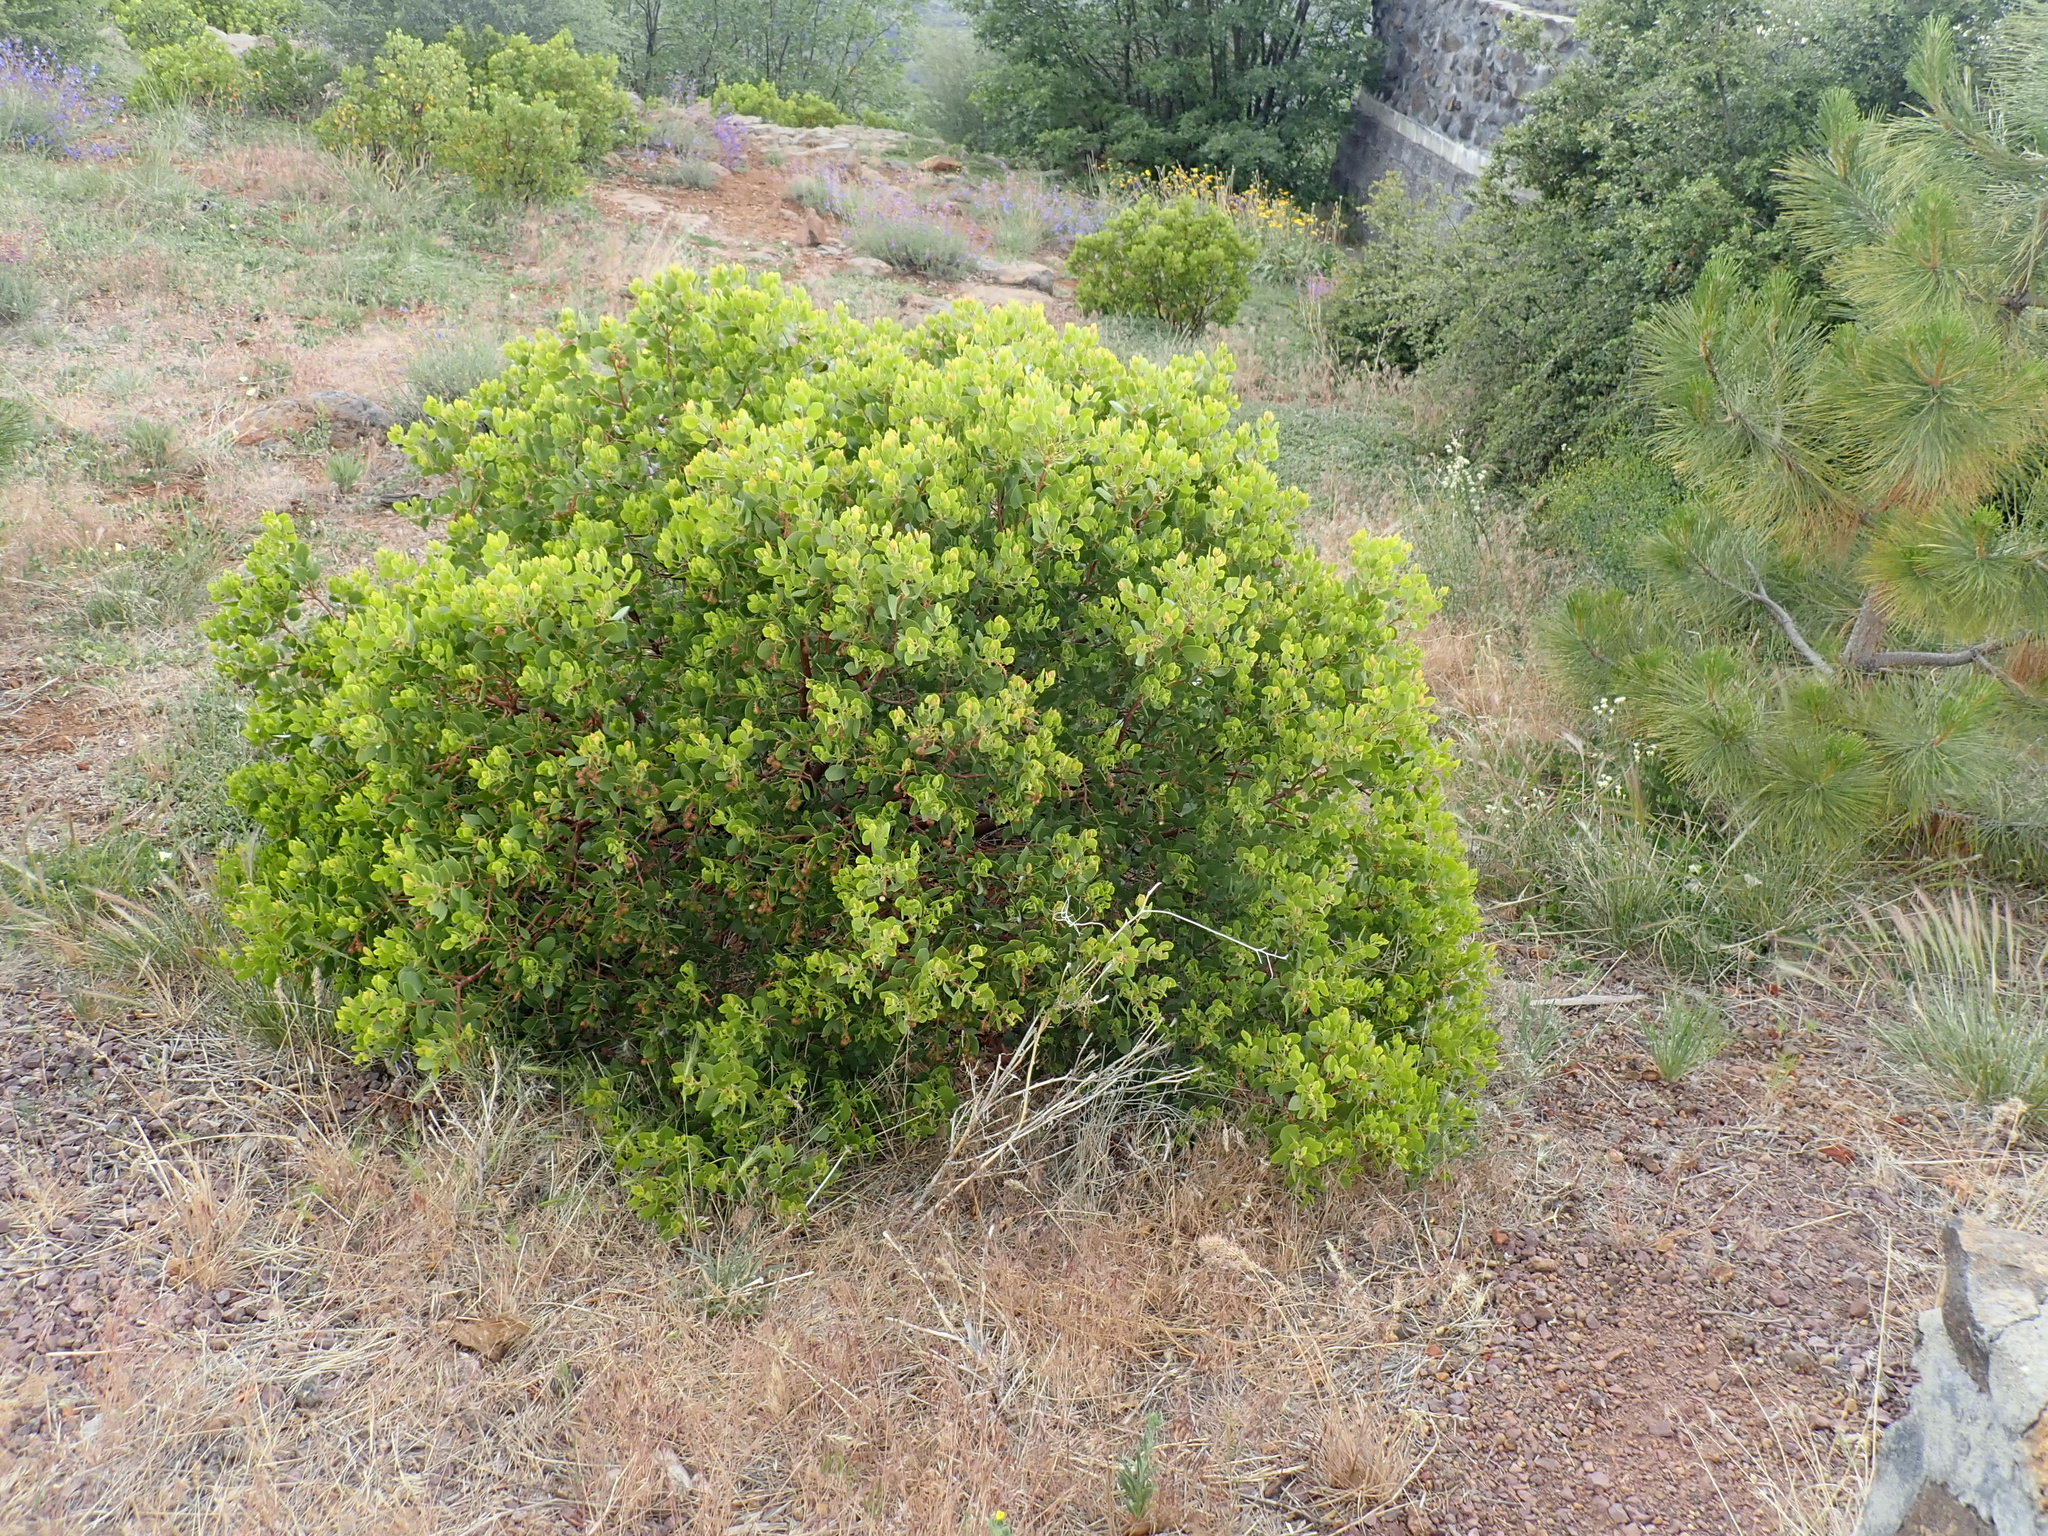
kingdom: Plantae
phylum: Tracheophyta
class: Magnoliopsida
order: Ericales
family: Ericaceae
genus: Arctostaphylos
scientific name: Arctostaphylos patula
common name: Green-leaf manzanita
